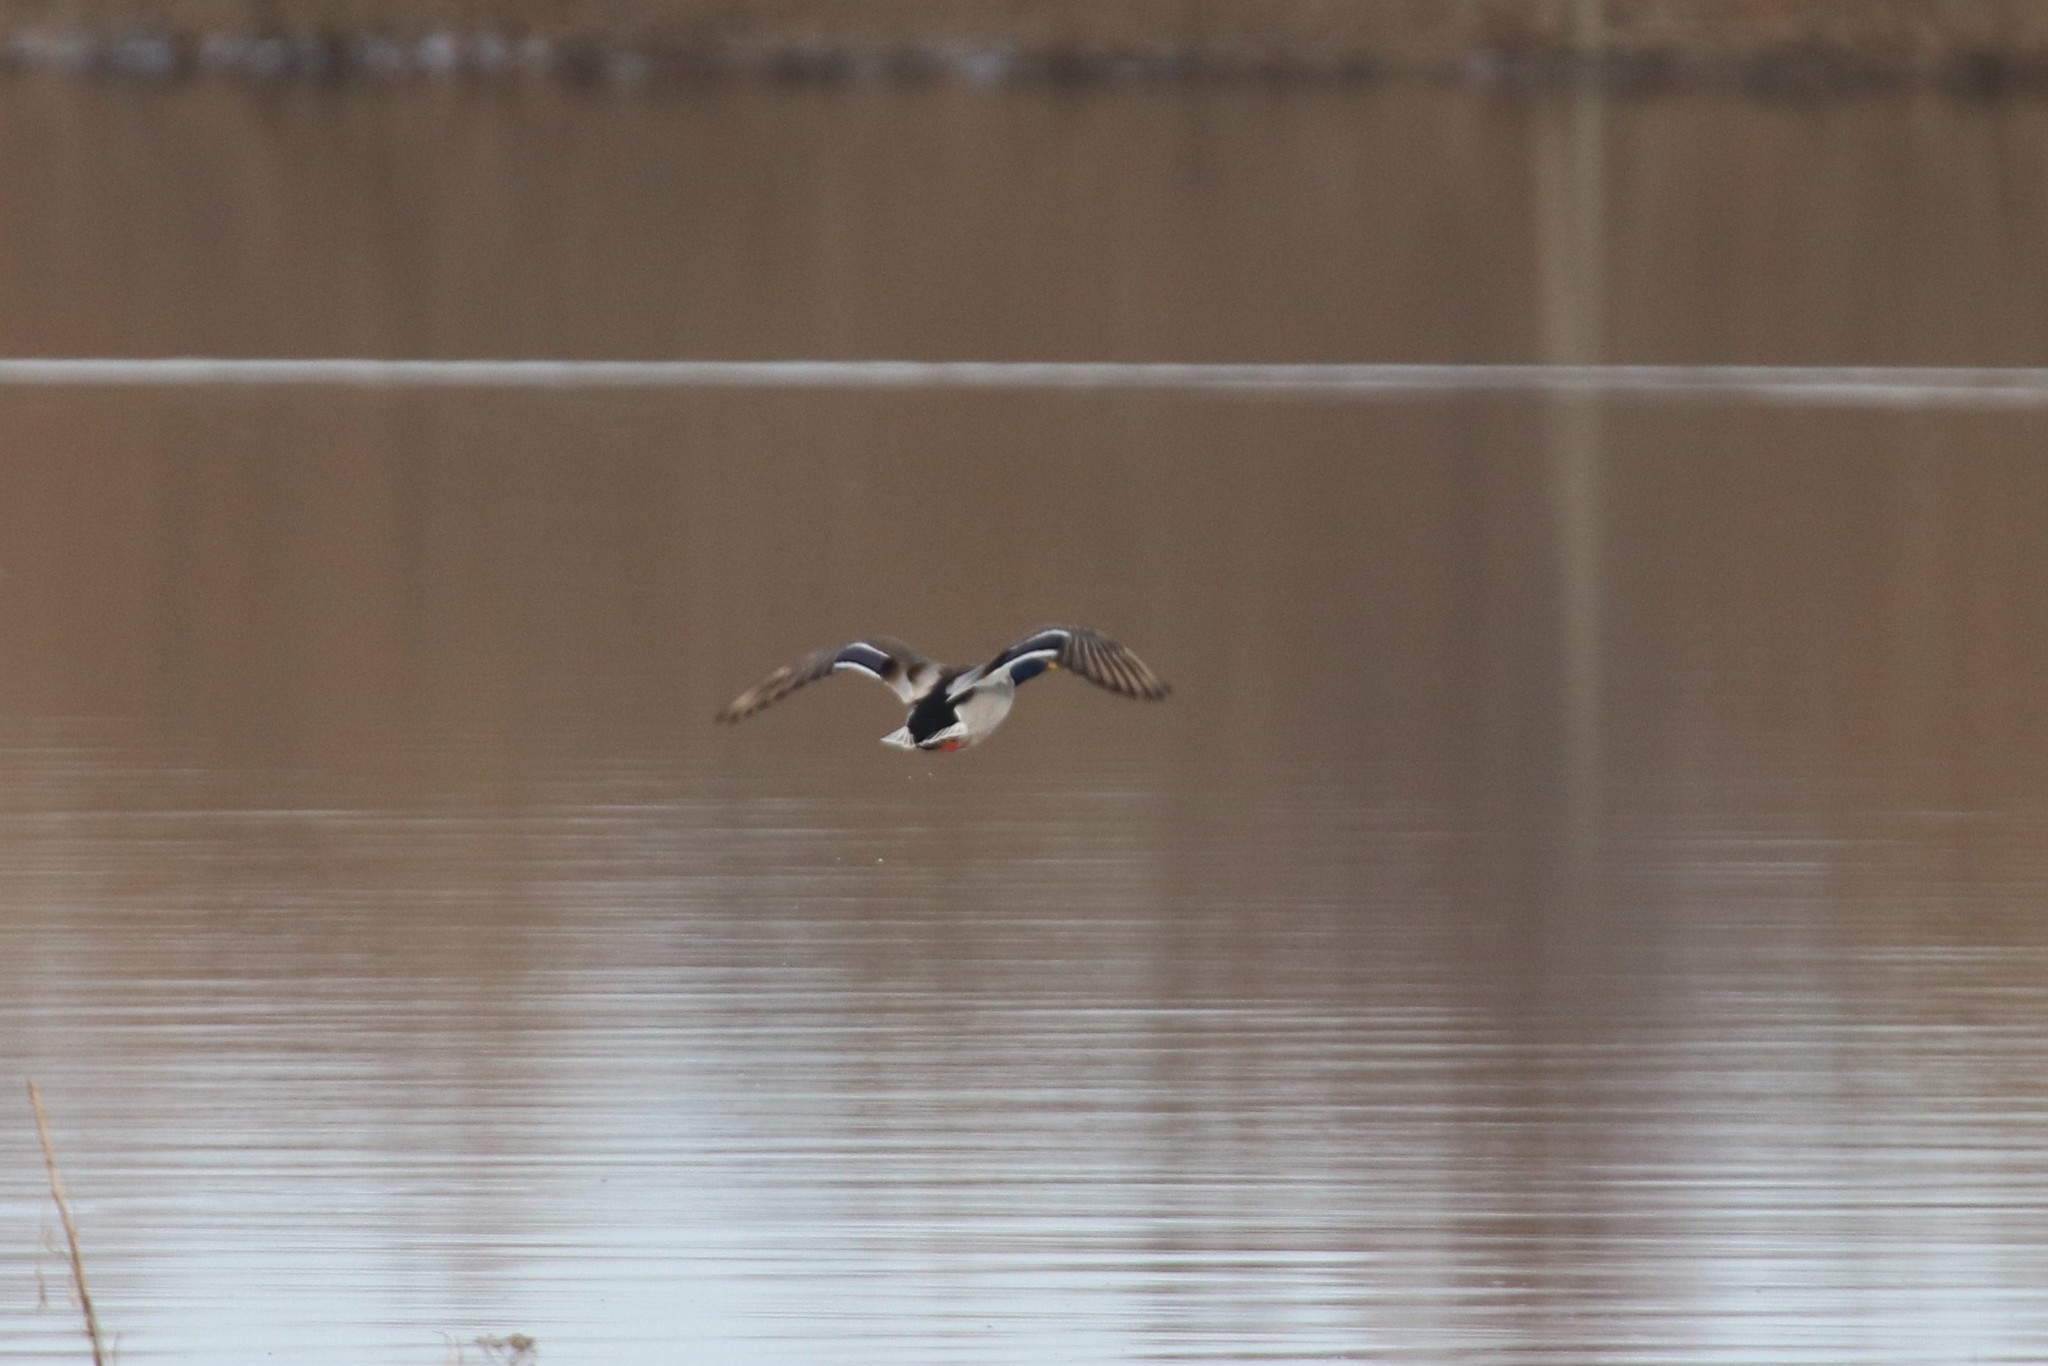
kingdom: Animalia
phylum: Chordata
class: Aves
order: Anseriformes
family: Anatidae
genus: Anas
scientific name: Anas platyrhynchos
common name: Mallard
